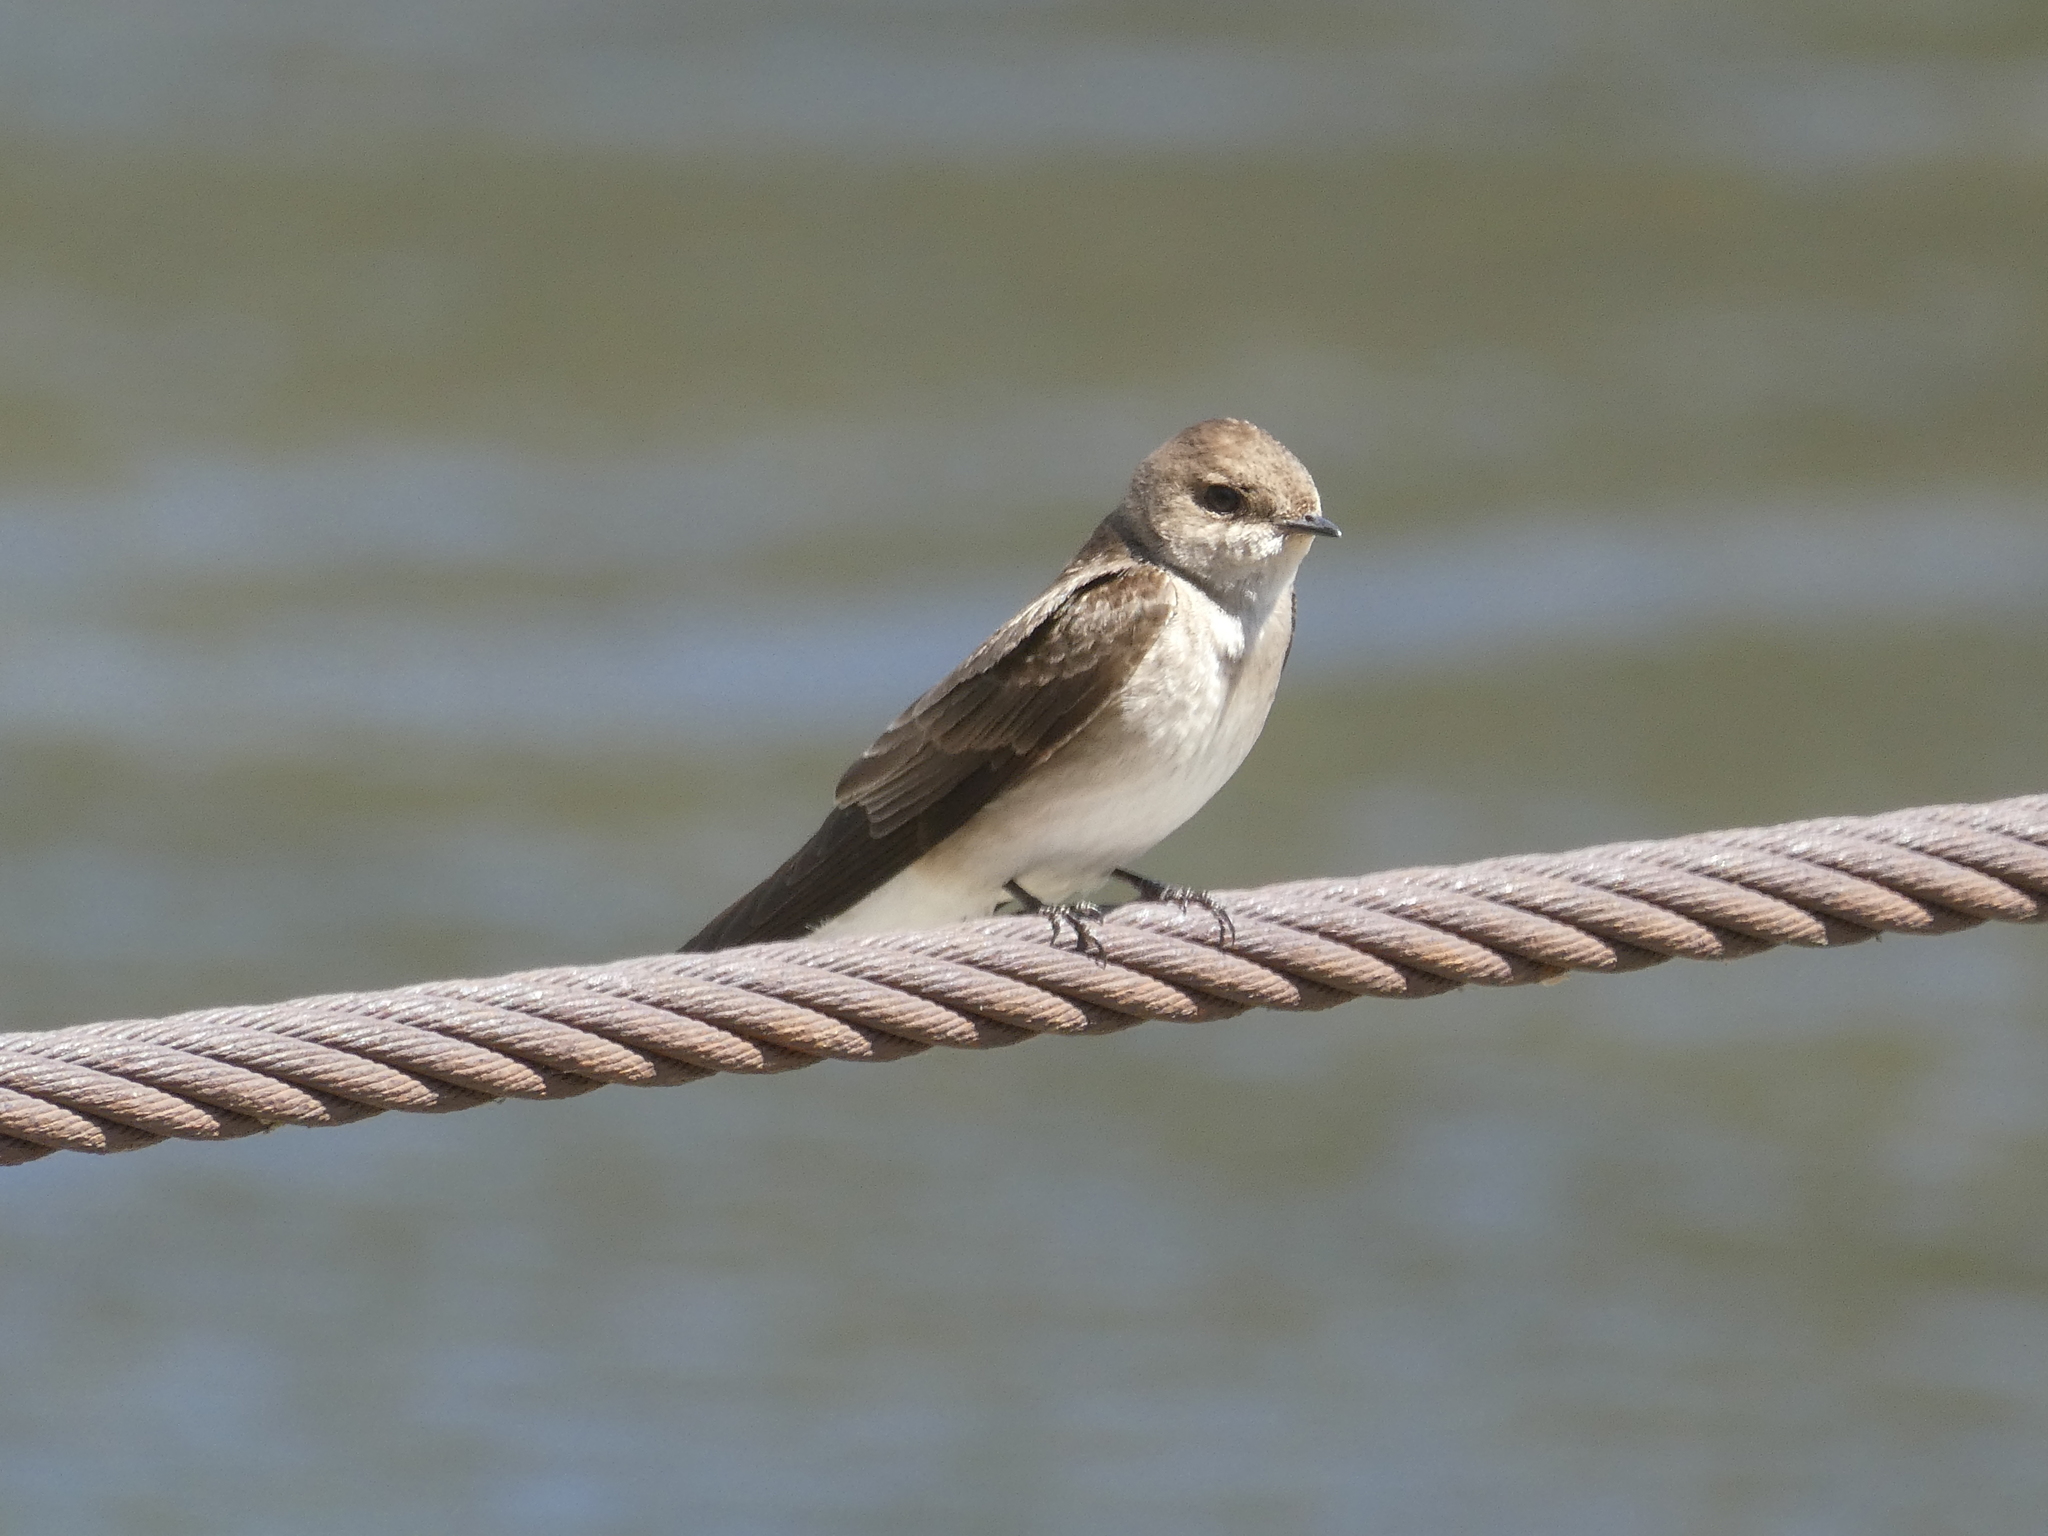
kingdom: Animalia
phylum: Chordata
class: Aves
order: Passeriformes
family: Hirundinidae
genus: Stelgidopteryx
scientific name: Stelgidopteryx serripennis
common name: Northern rough-winged swallow
